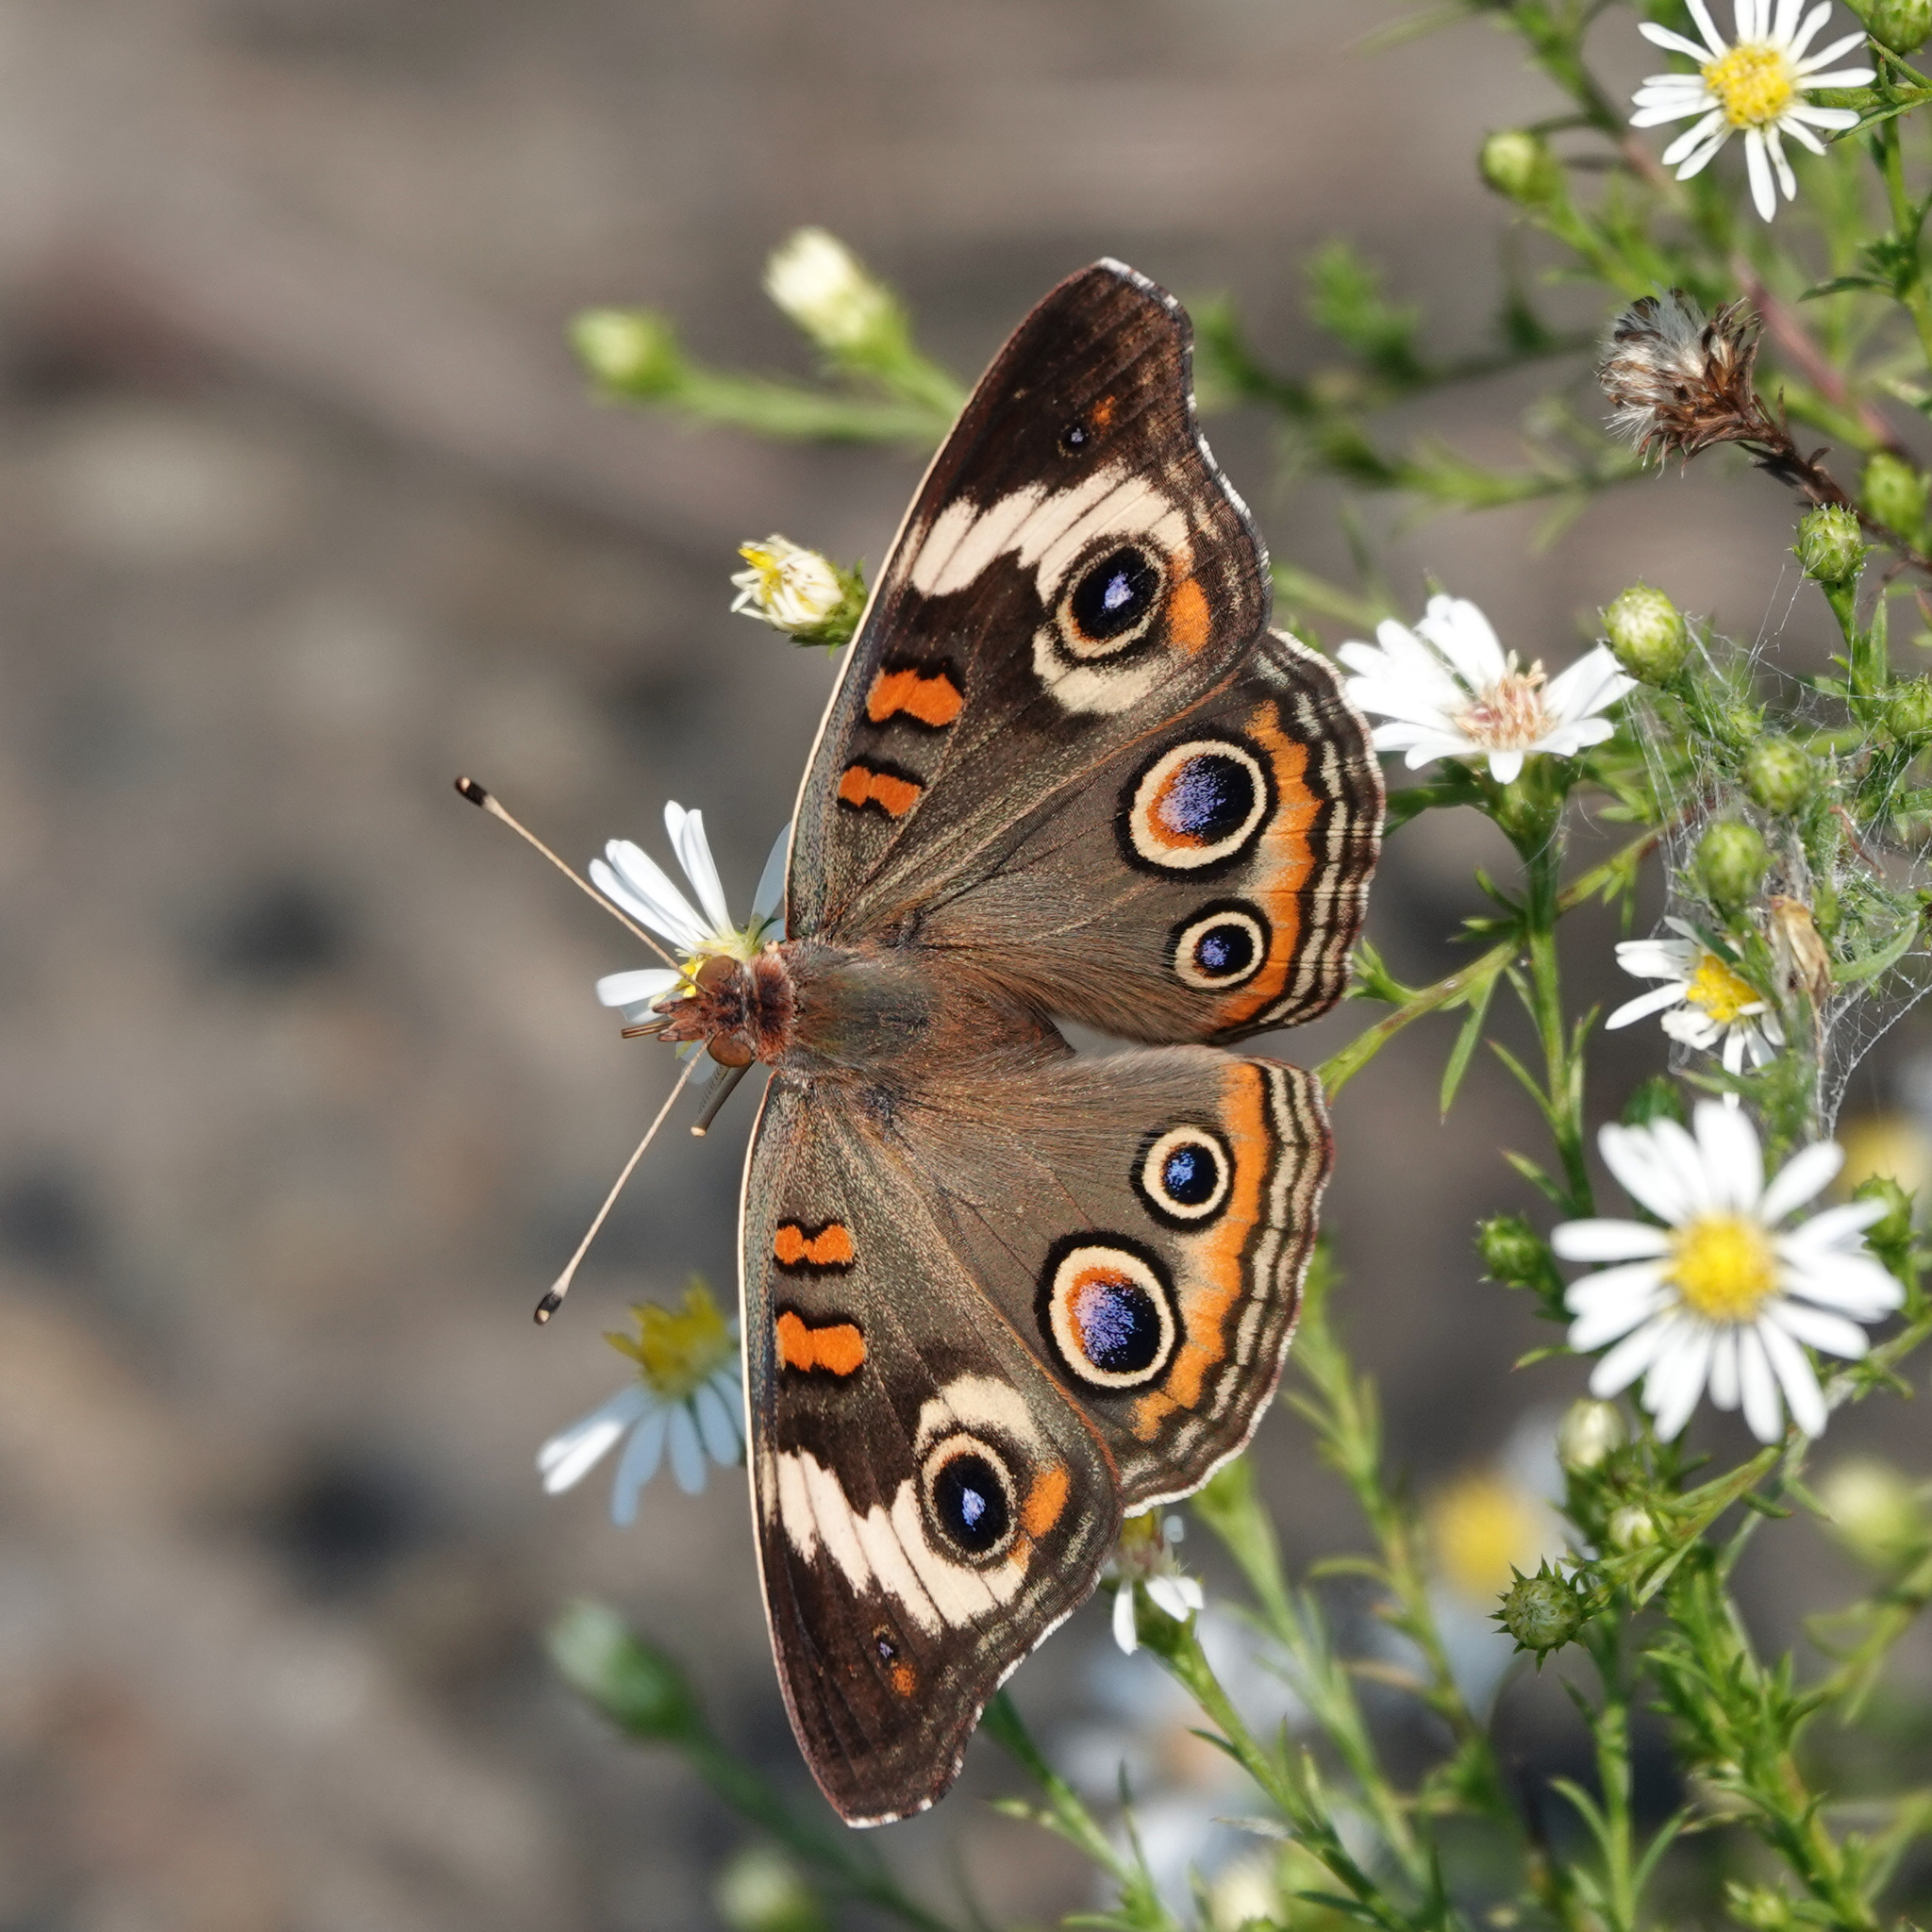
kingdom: Animalia
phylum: Arthropoda
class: Insecta
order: Lepidoptera
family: Nymphalidae
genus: Junonia
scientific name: Junonia coenia
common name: Common buckeye
